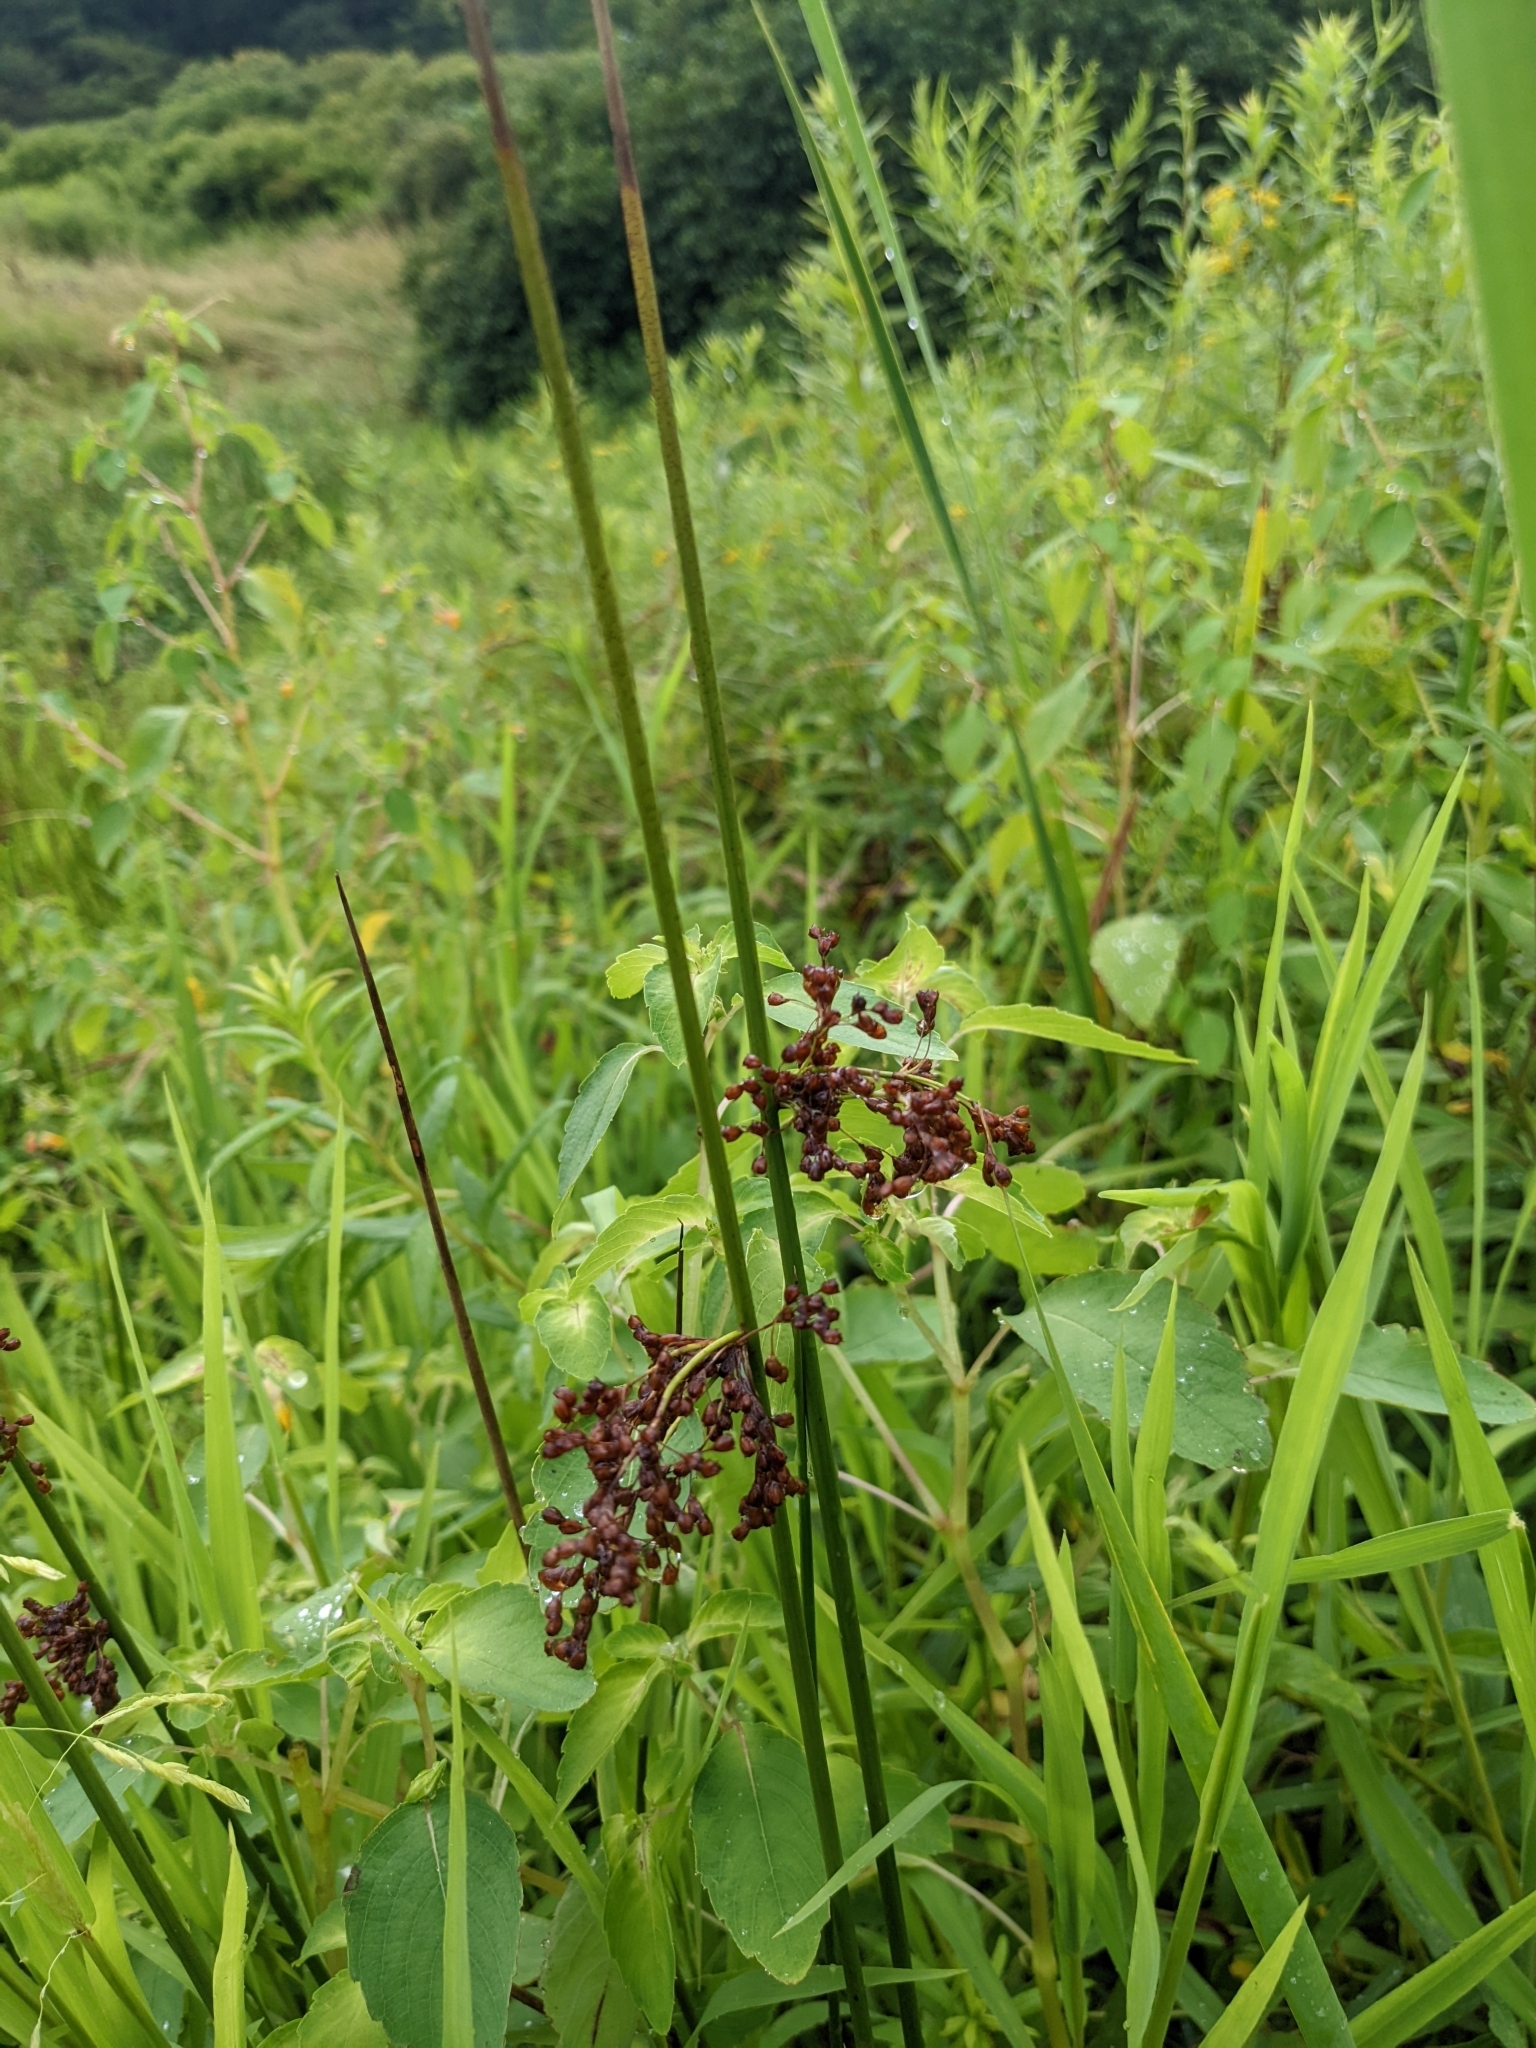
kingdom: Plantae
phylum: Tracheophyta
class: Liliopsida
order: Poales
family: Juncaceae
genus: Juncus
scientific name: Juncus effusus
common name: Soft rush
